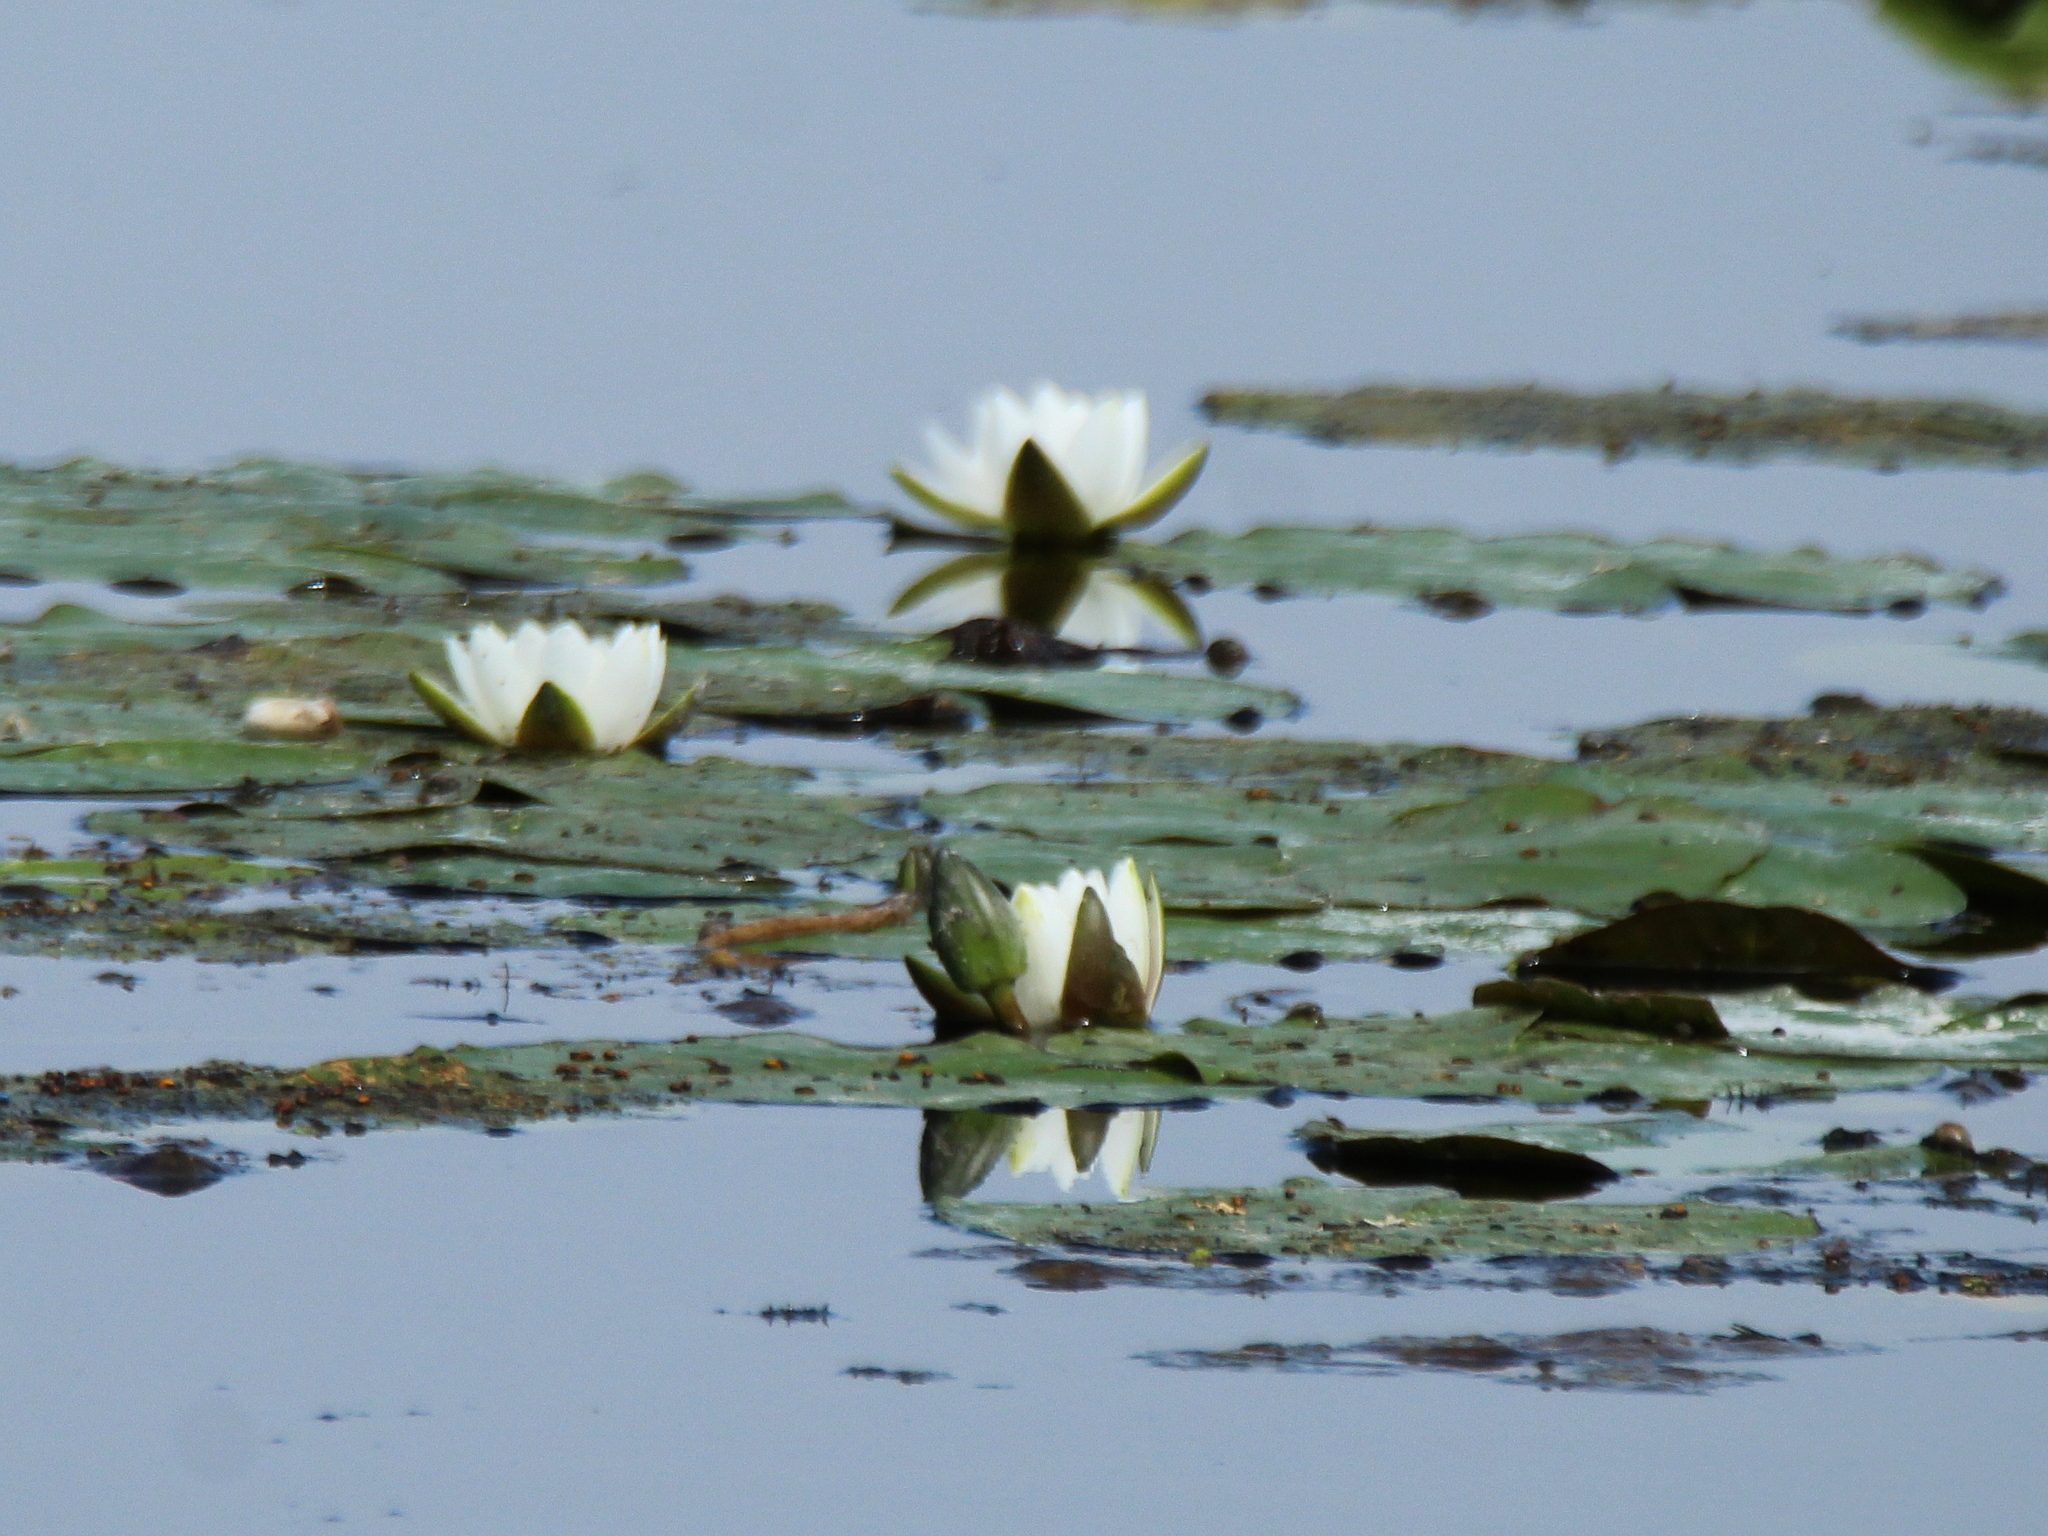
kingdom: Plantae
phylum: Tracheophyta
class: Magnoliopsida
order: Nymphaeales
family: Nymphaeaceae
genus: Nymphaea
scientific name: Nymphaea candida
